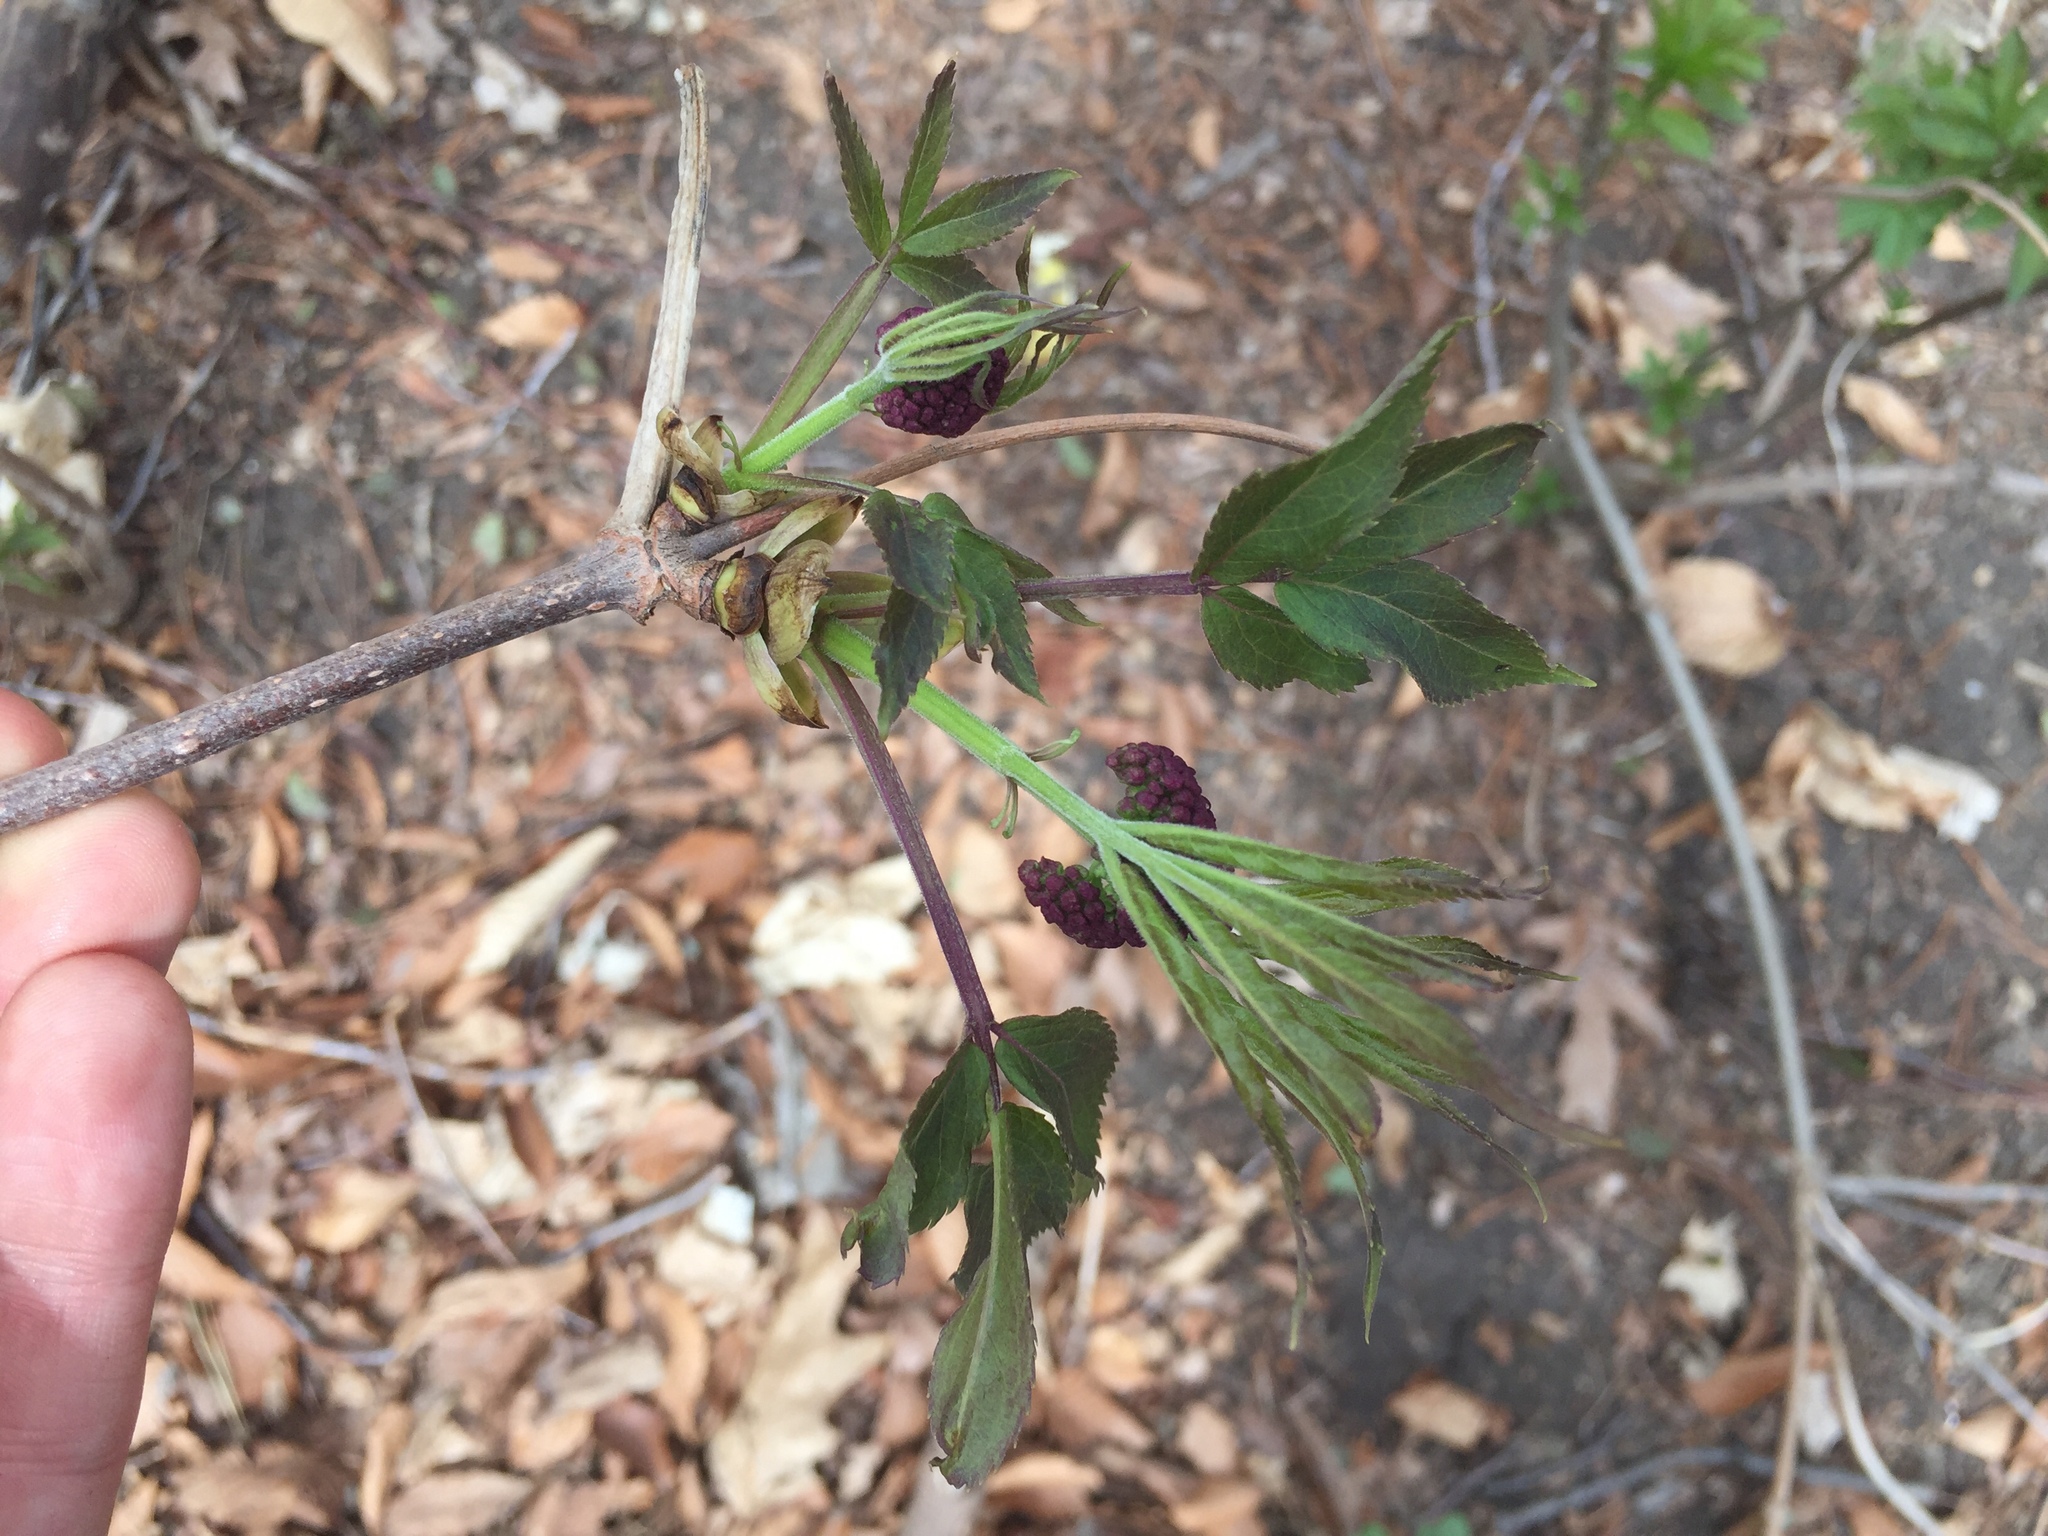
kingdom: Plantae
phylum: Tracheophyta
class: Magnoliopsida
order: Dipsacales
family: Viburnaceae
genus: Sambucus
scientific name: Sambucus racemosa
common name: Red-berried elder
